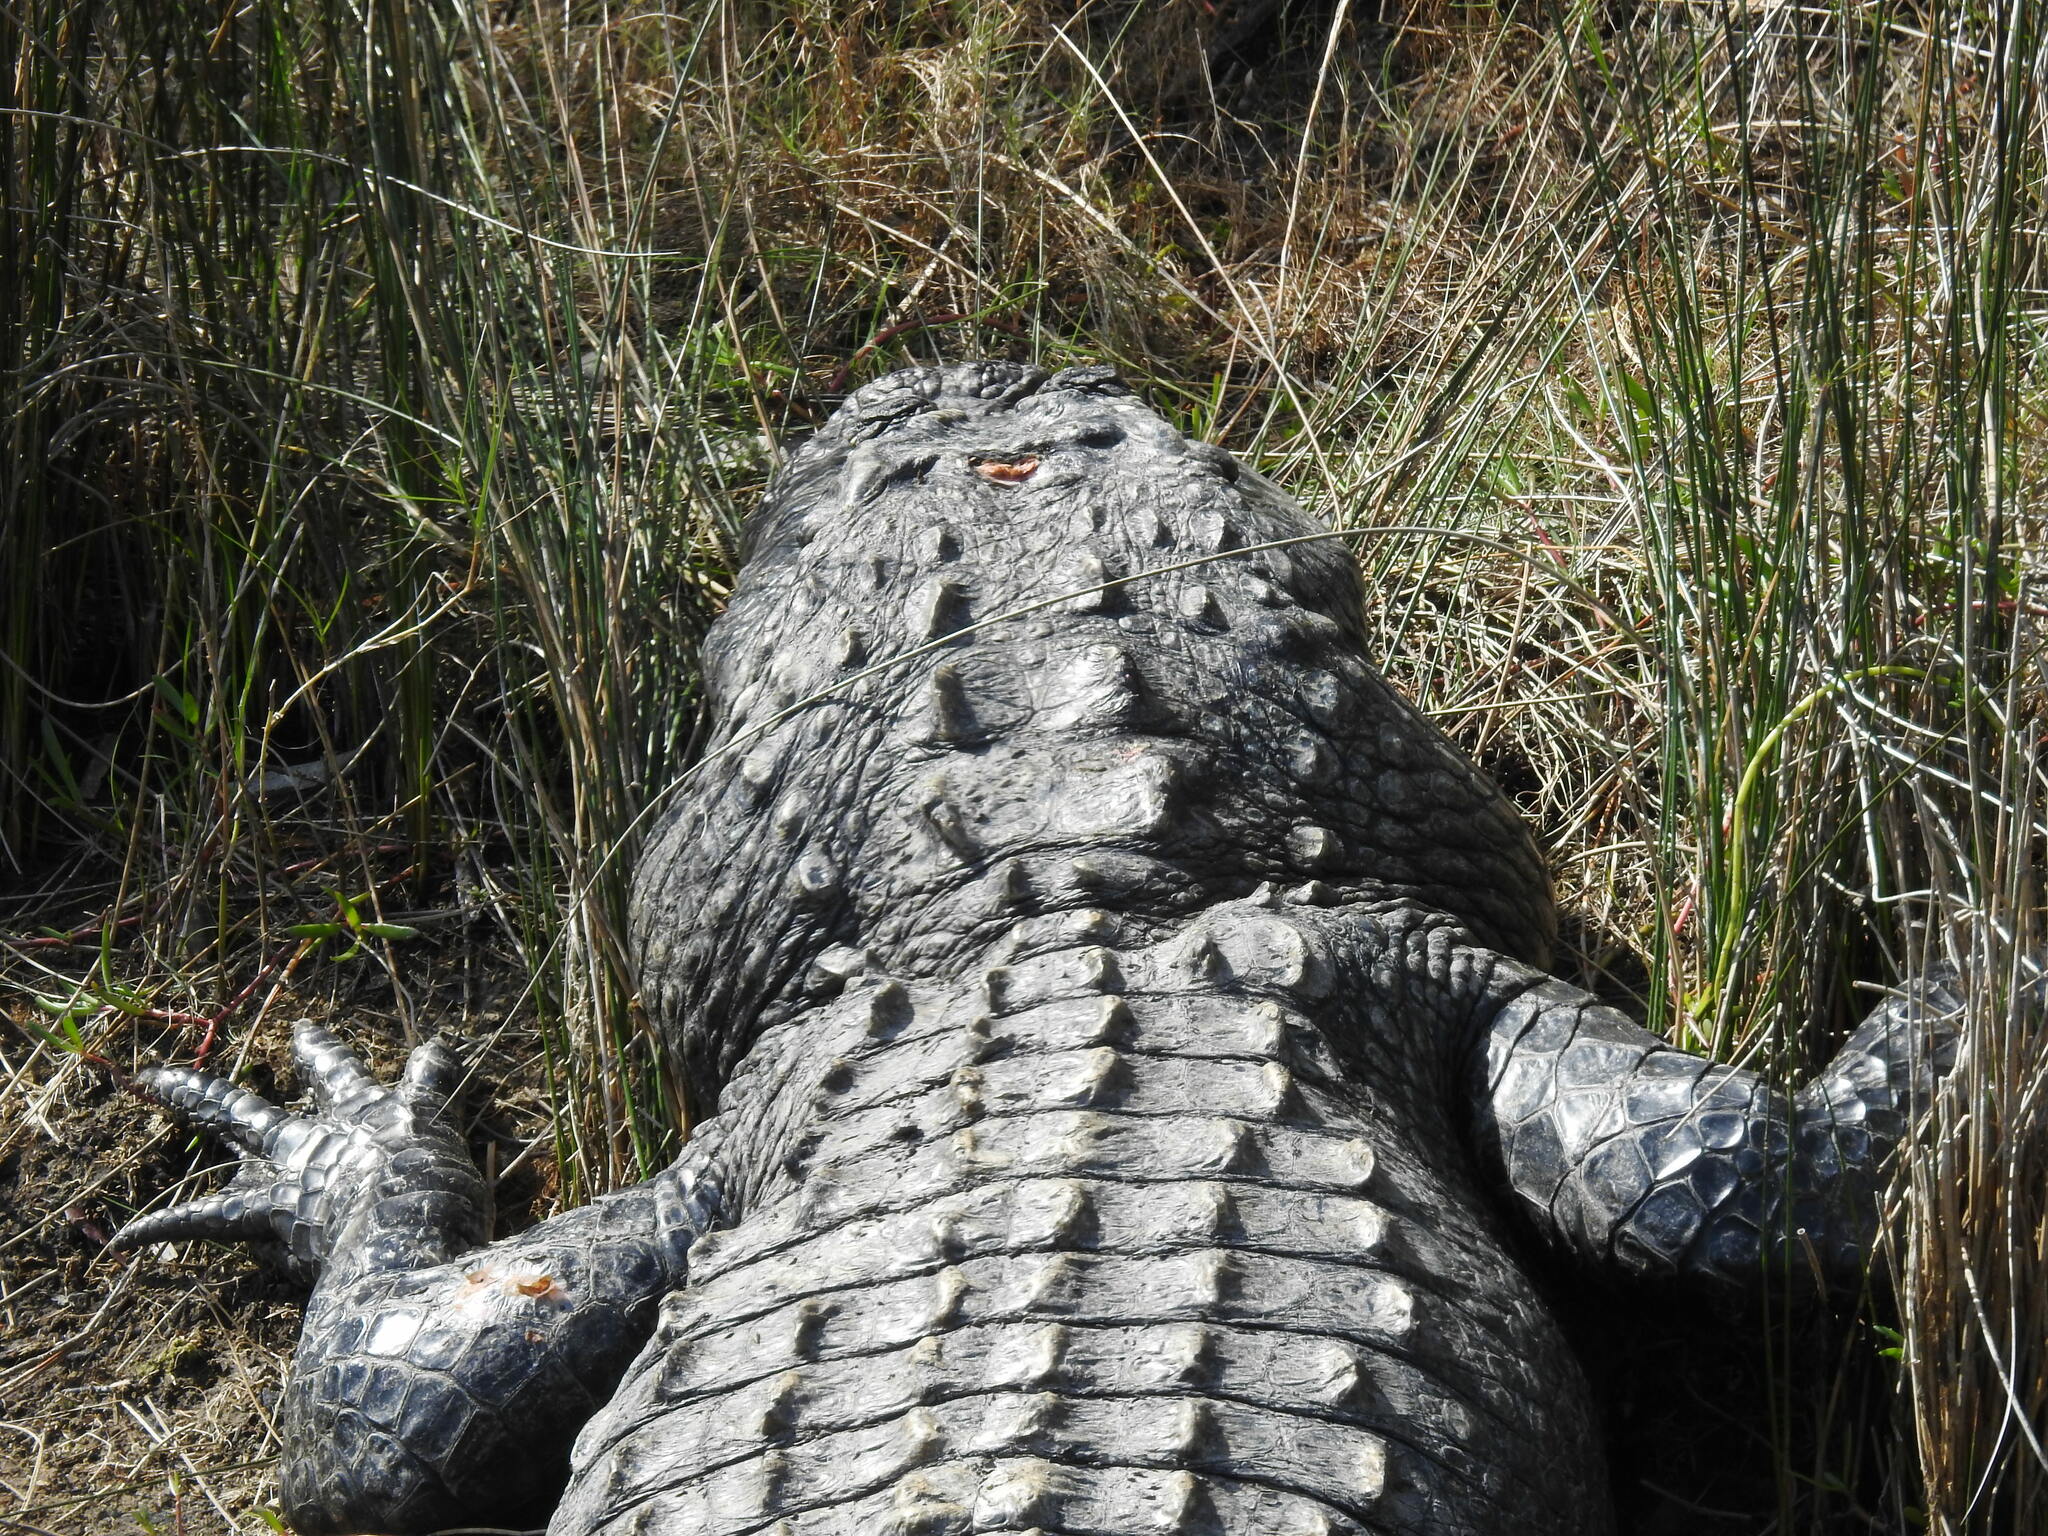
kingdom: Animalia
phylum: Chordata
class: Crocodylia
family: Alligatoridae
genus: Alligator
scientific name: Alligator mississippiensis
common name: American alligator
